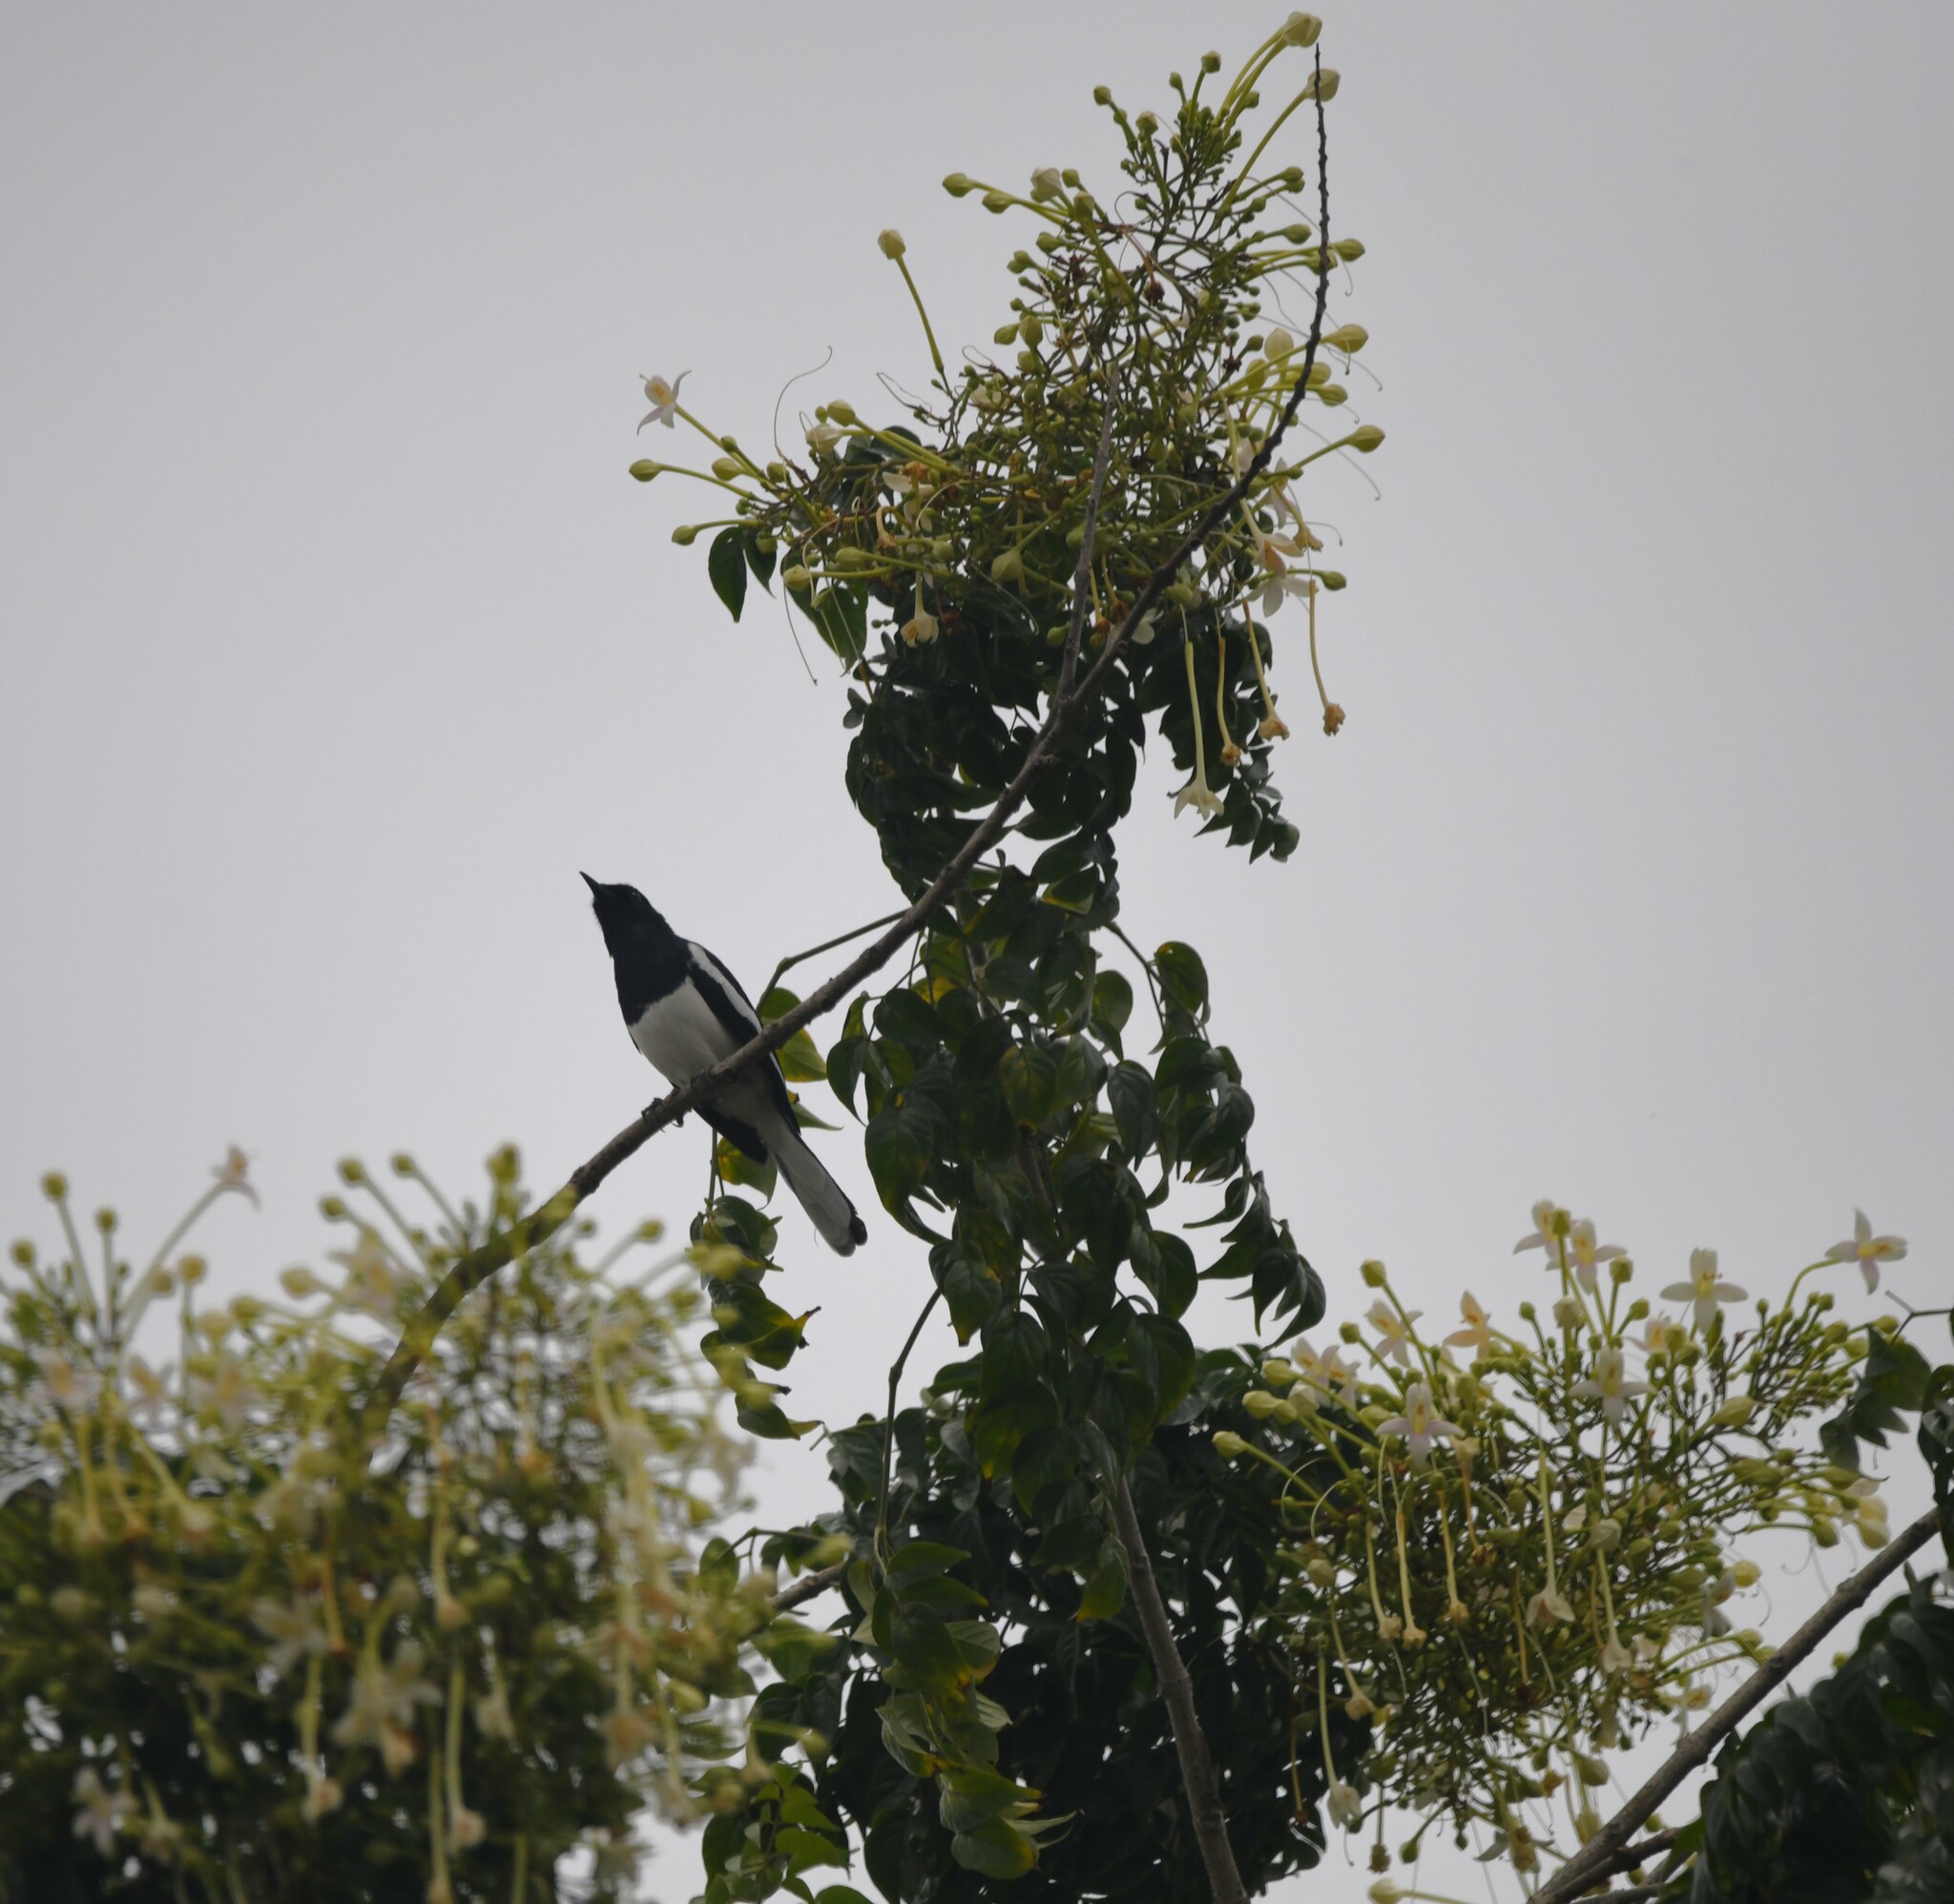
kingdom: Animalia
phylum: Chordata
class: Aves
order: Passeriformes
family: Muscicapidae
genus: Copsychus
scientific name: Copsychus saularis
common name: Oriental magpie-robin
